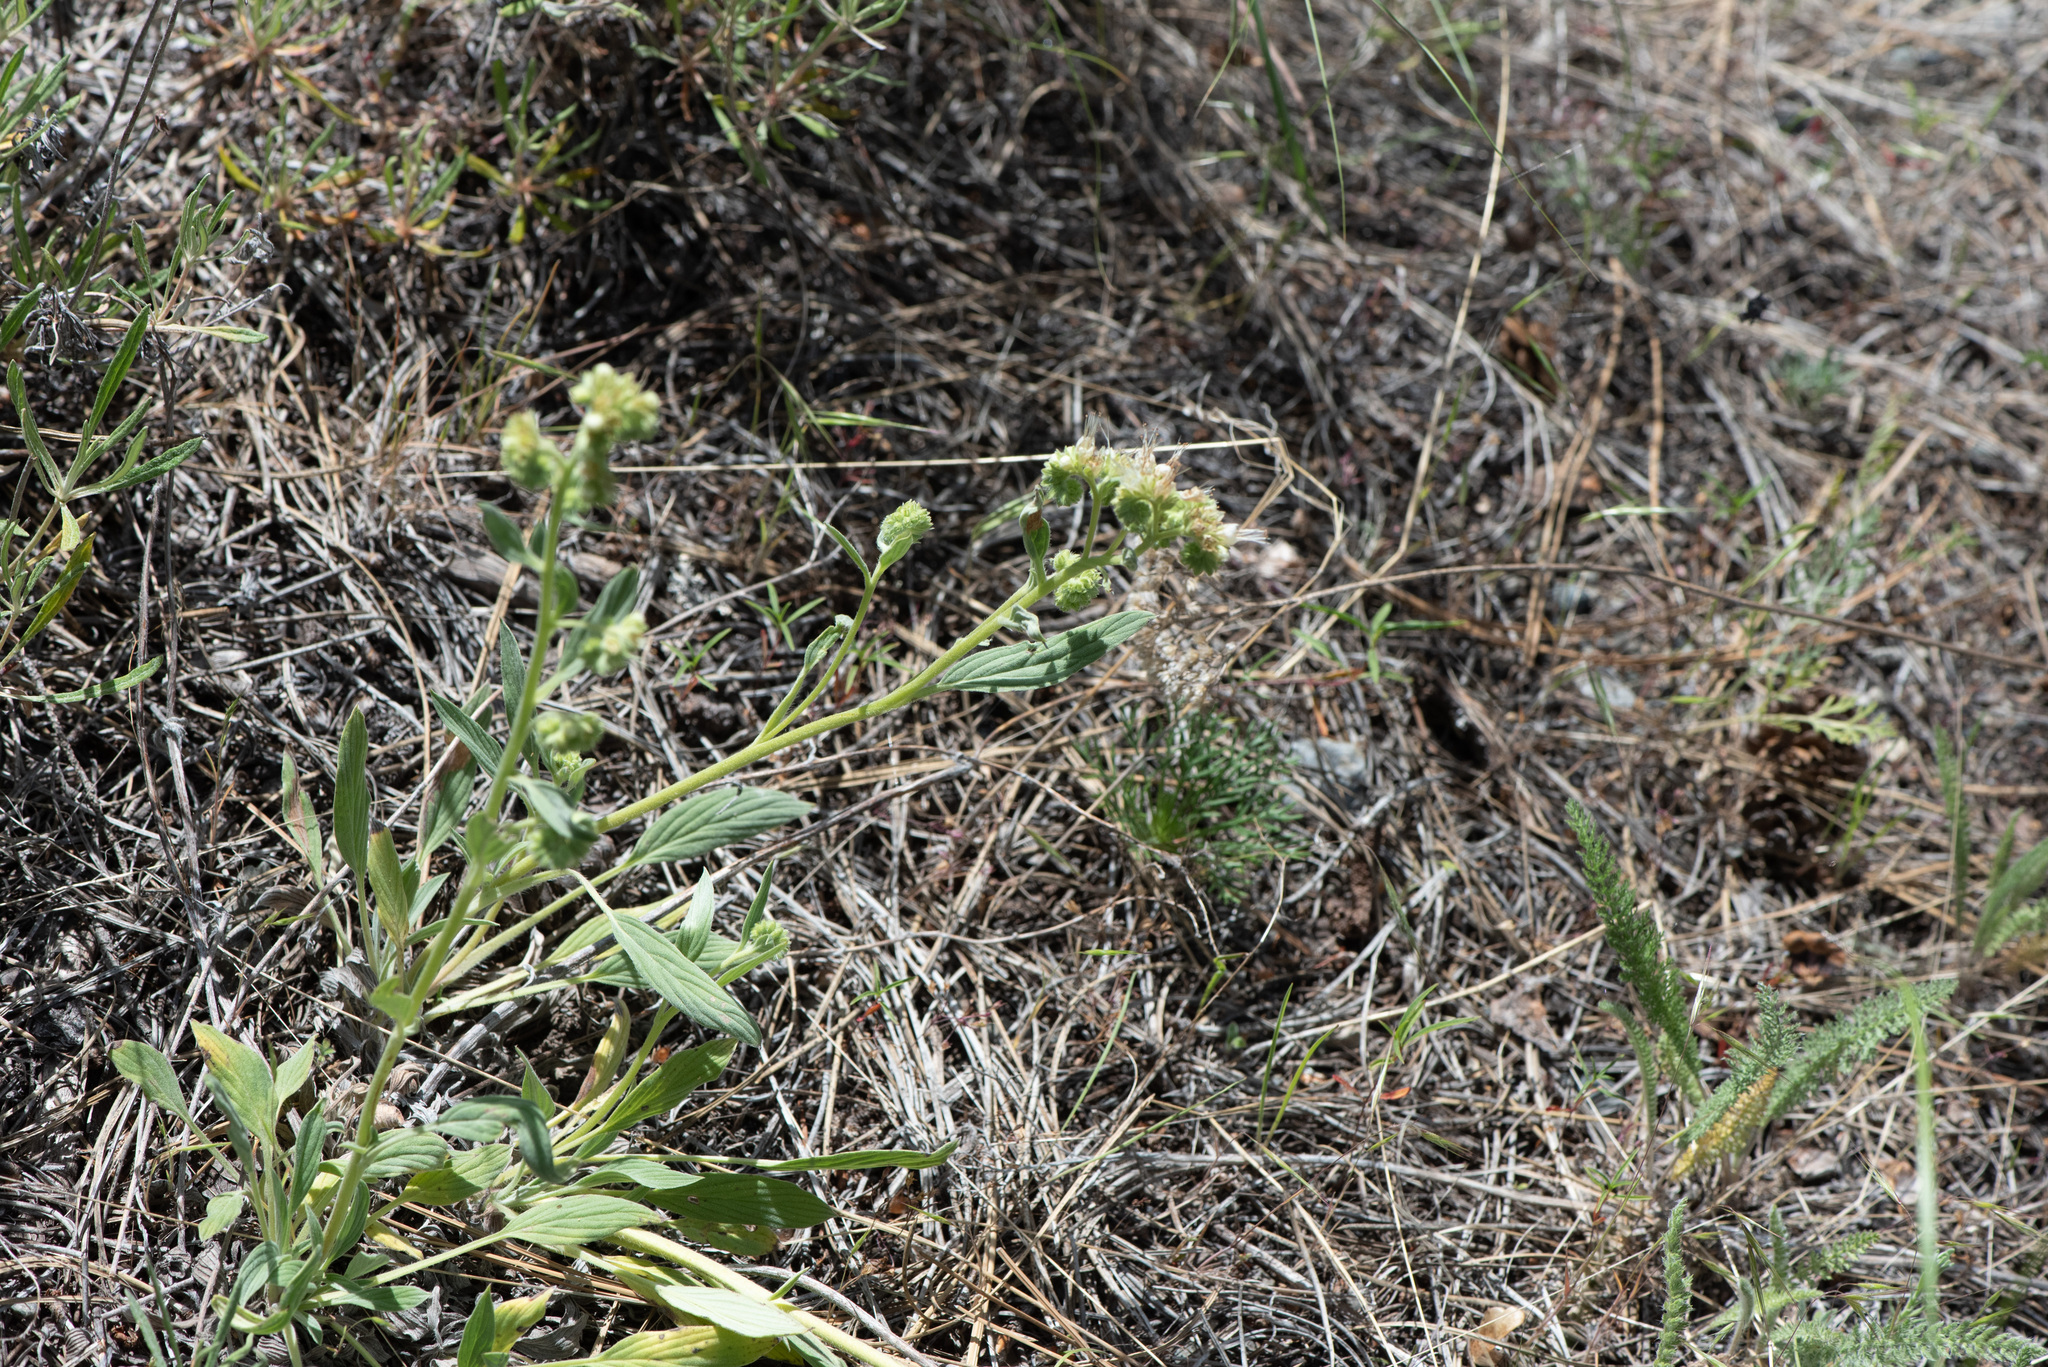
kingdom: Plantae
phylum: Tracheophyta
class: Magnoliopsida
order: Boraginales
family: Hydrophyllaceae
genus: Phacelia
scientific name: Phacelia hastata
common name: Silver-leaved phacelia
